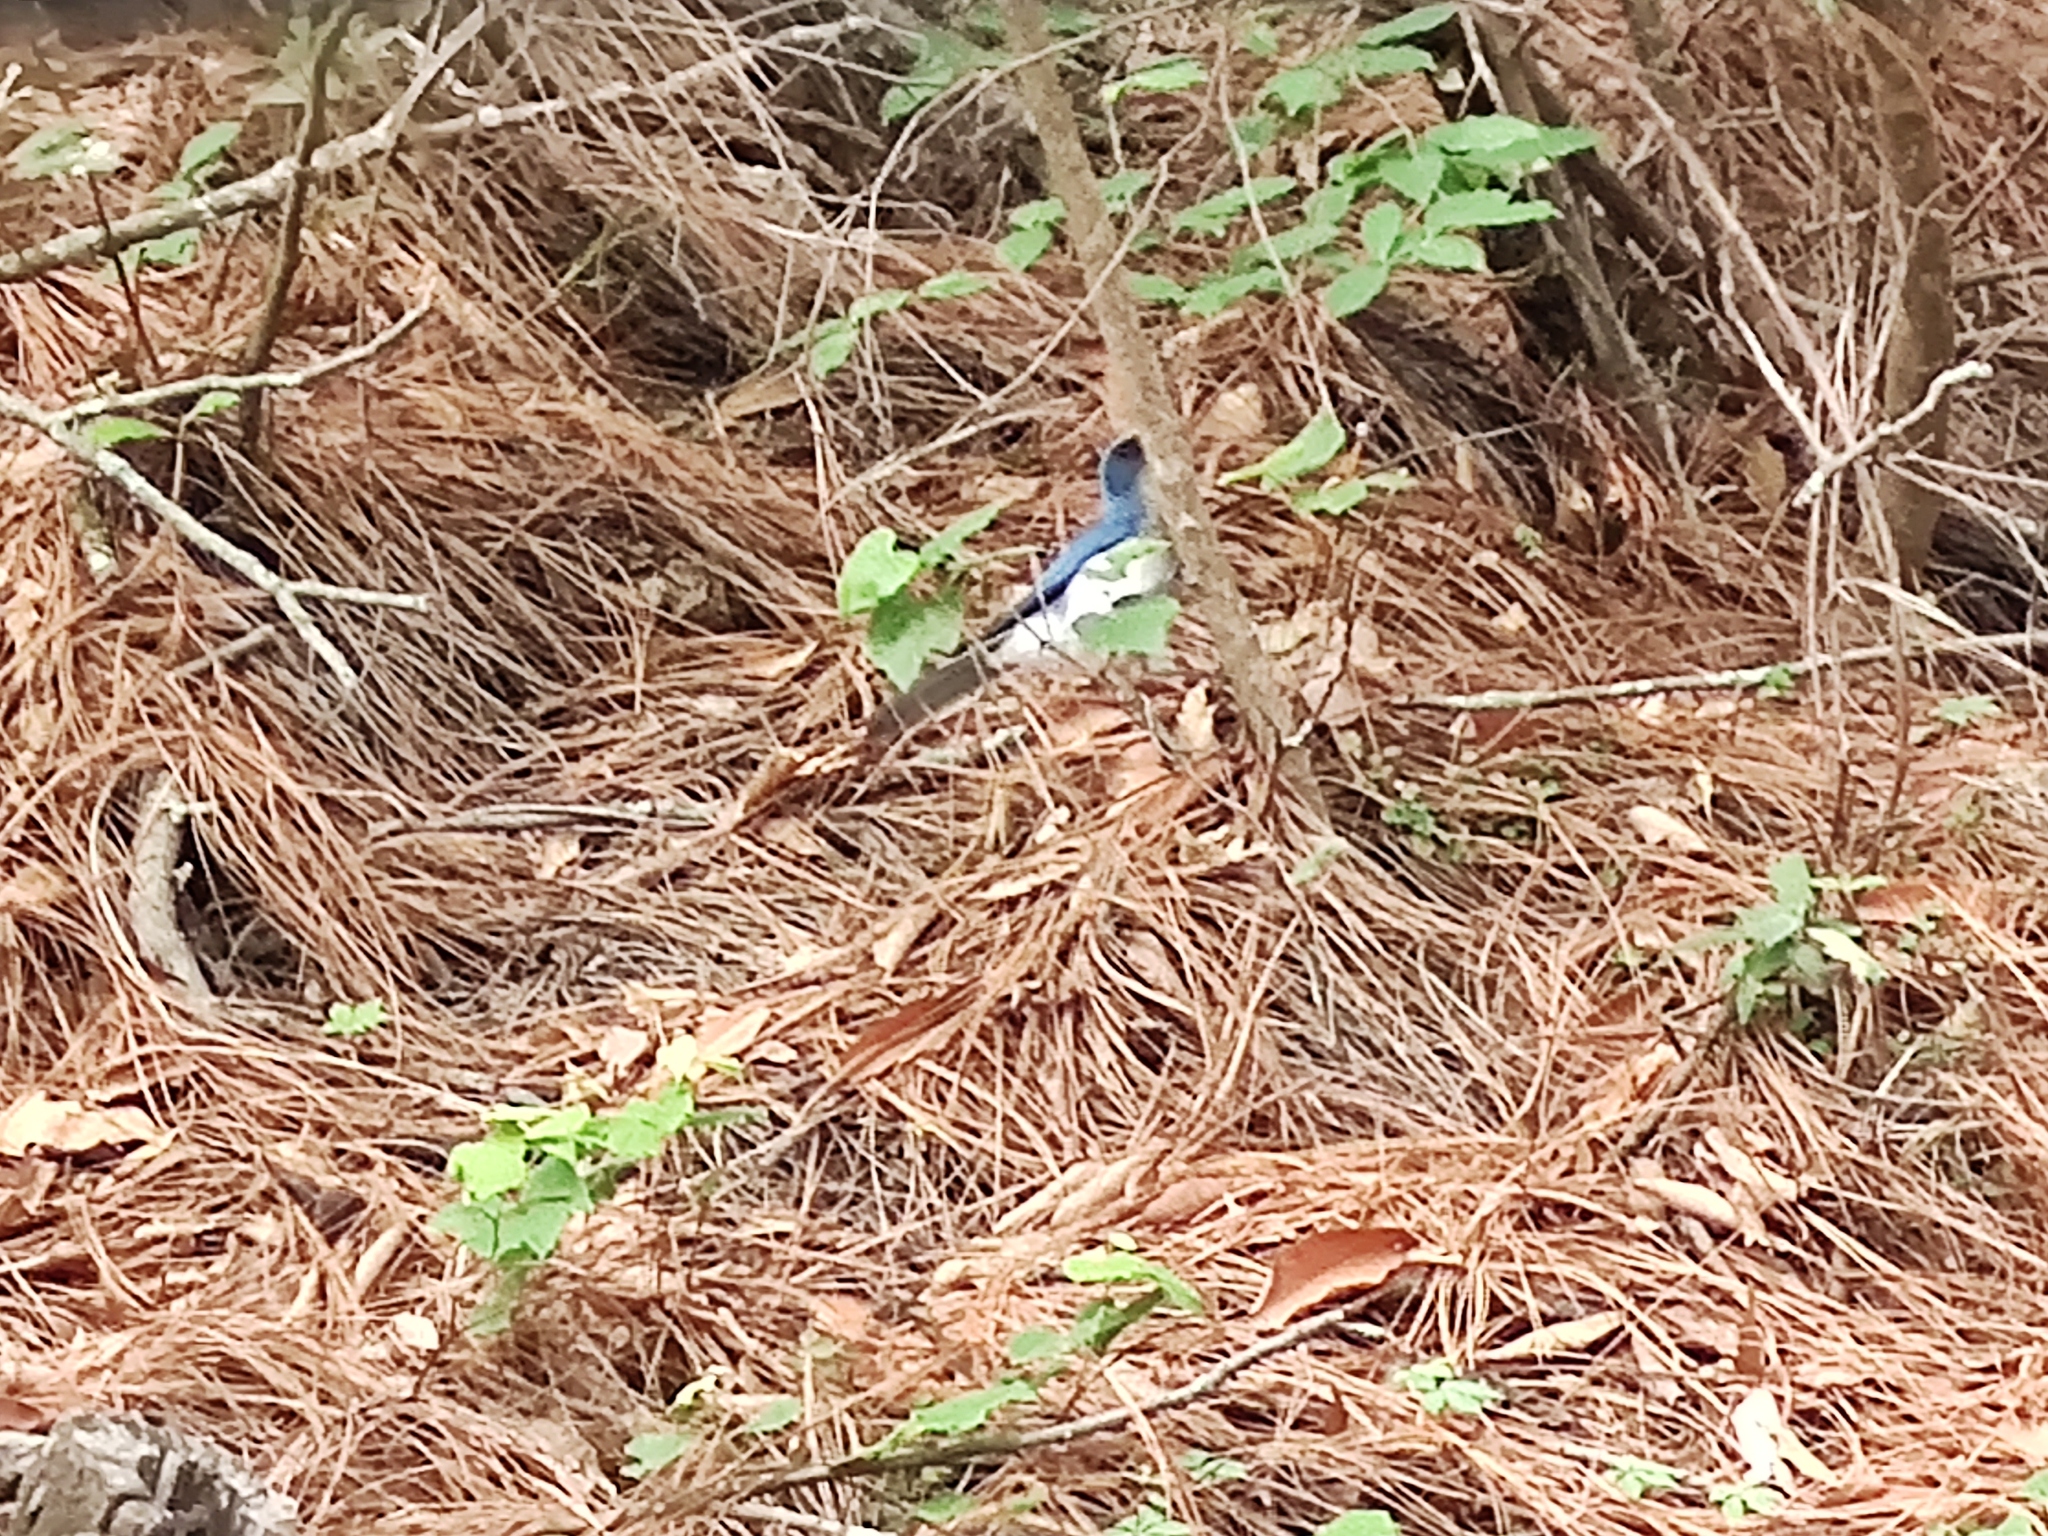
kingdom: Animalia
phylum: Chordata
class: Aves
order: Passeriformes
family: Corvidae
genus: Aphelocoma
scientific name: Aphelocoma wollweberi
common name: Mexican jay
